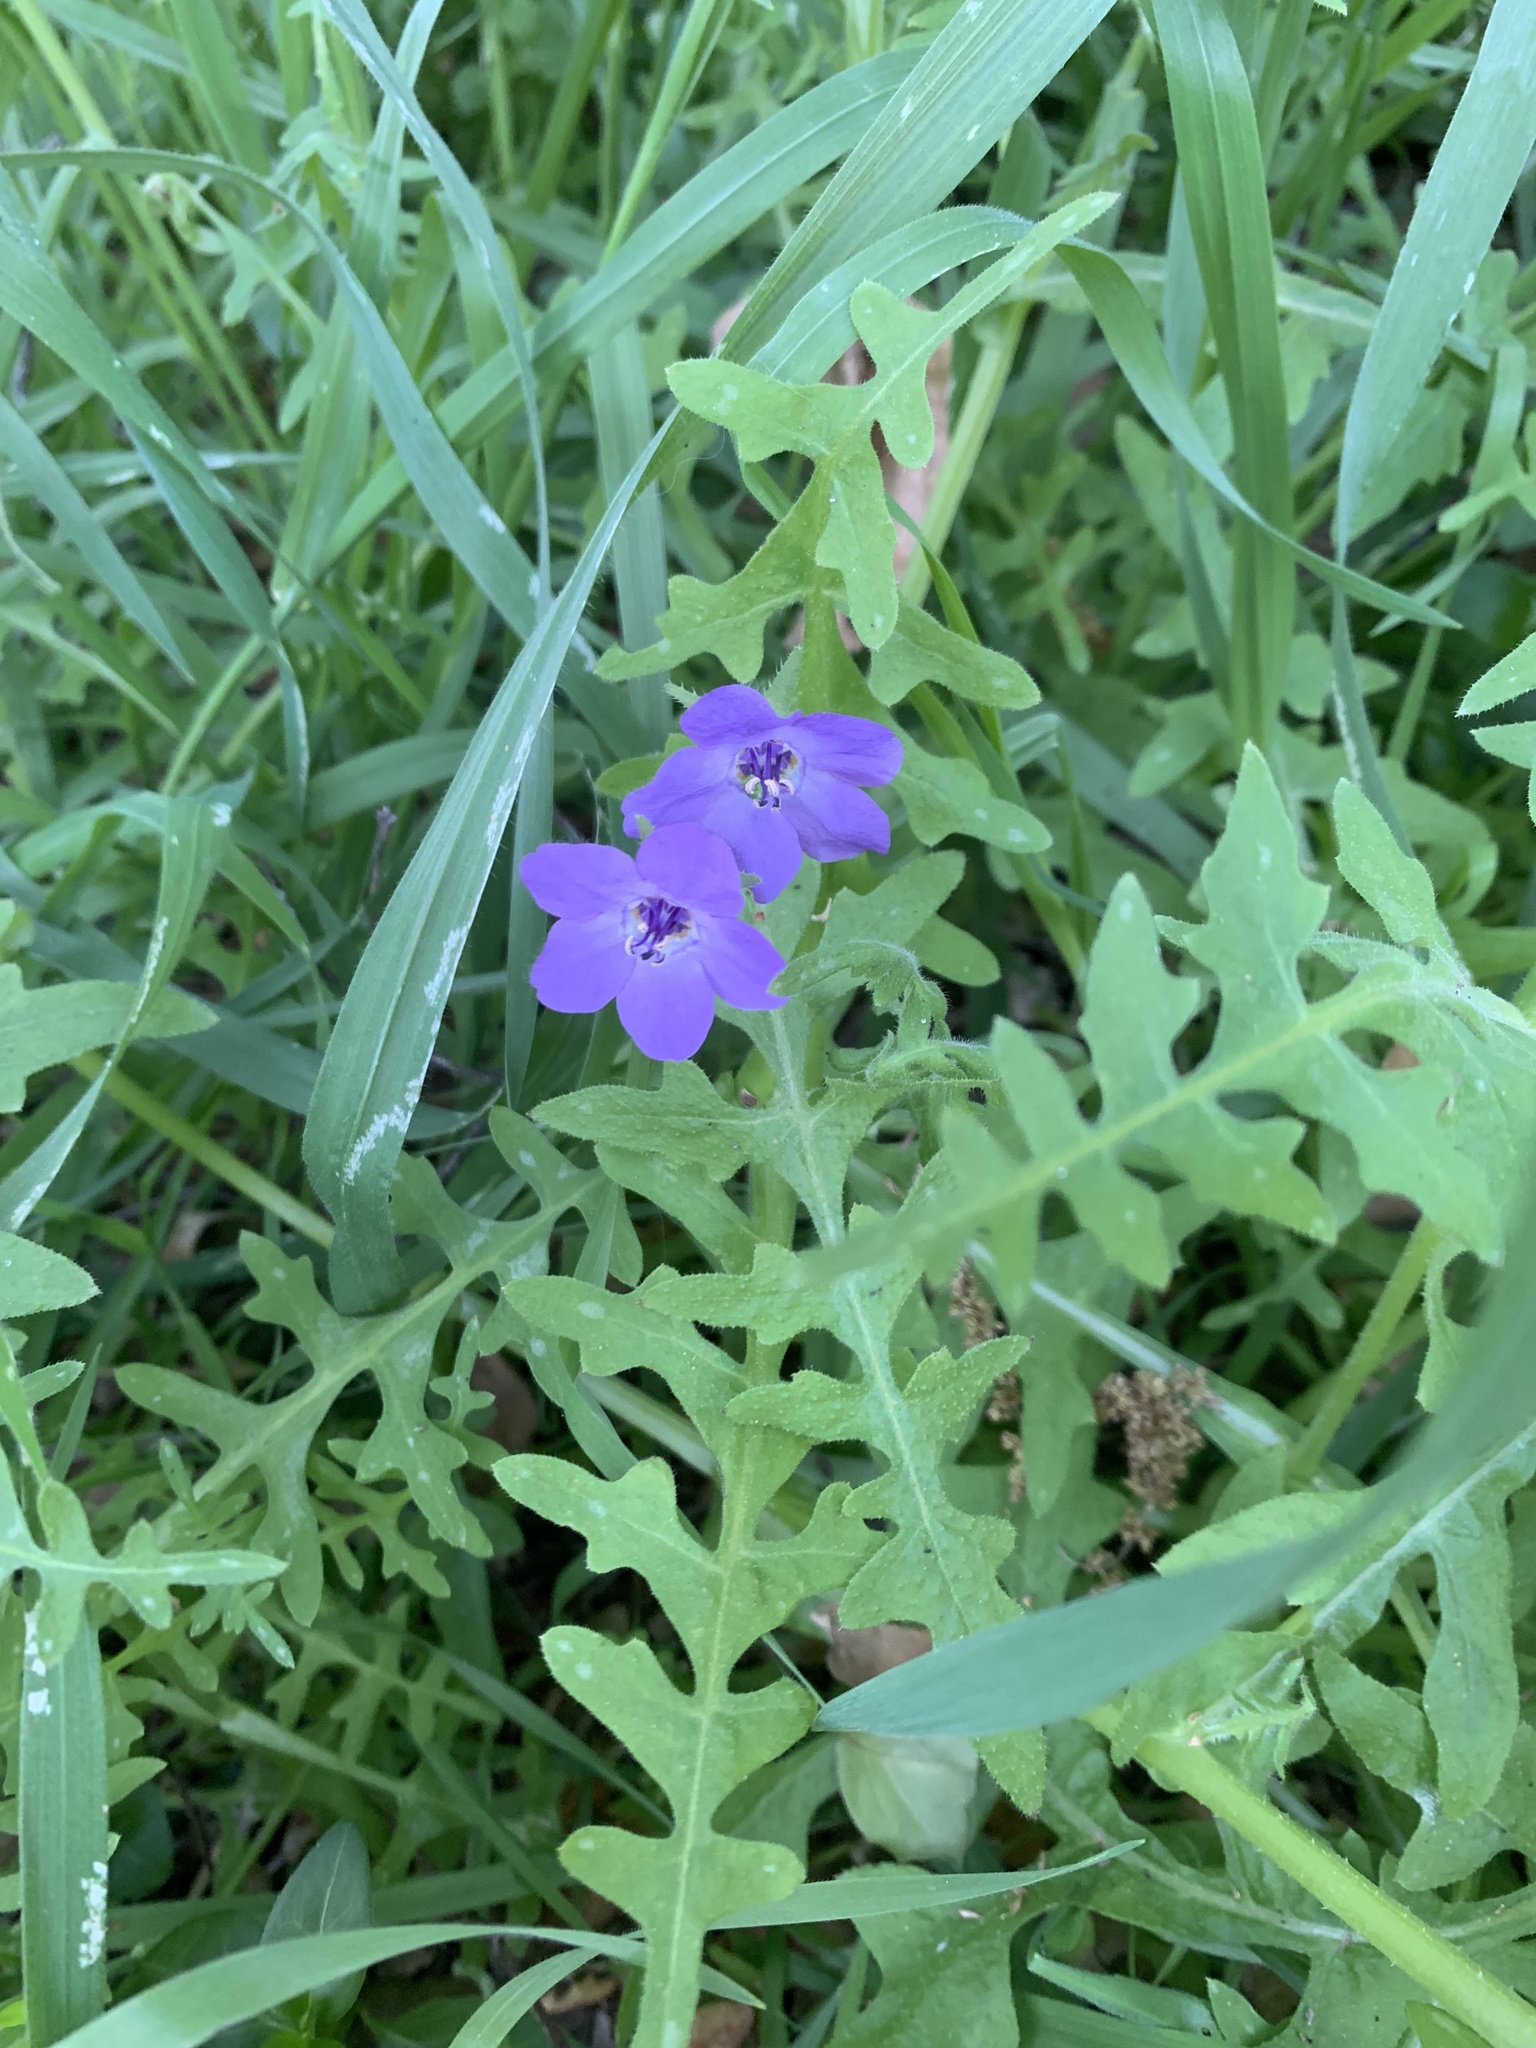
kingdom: Plantae
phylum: Tracheophyta
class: Magnoliopsida
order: Boraginales
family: Hydrophyllaceae
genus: Pholistoma
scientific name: Pholistoma auritum
